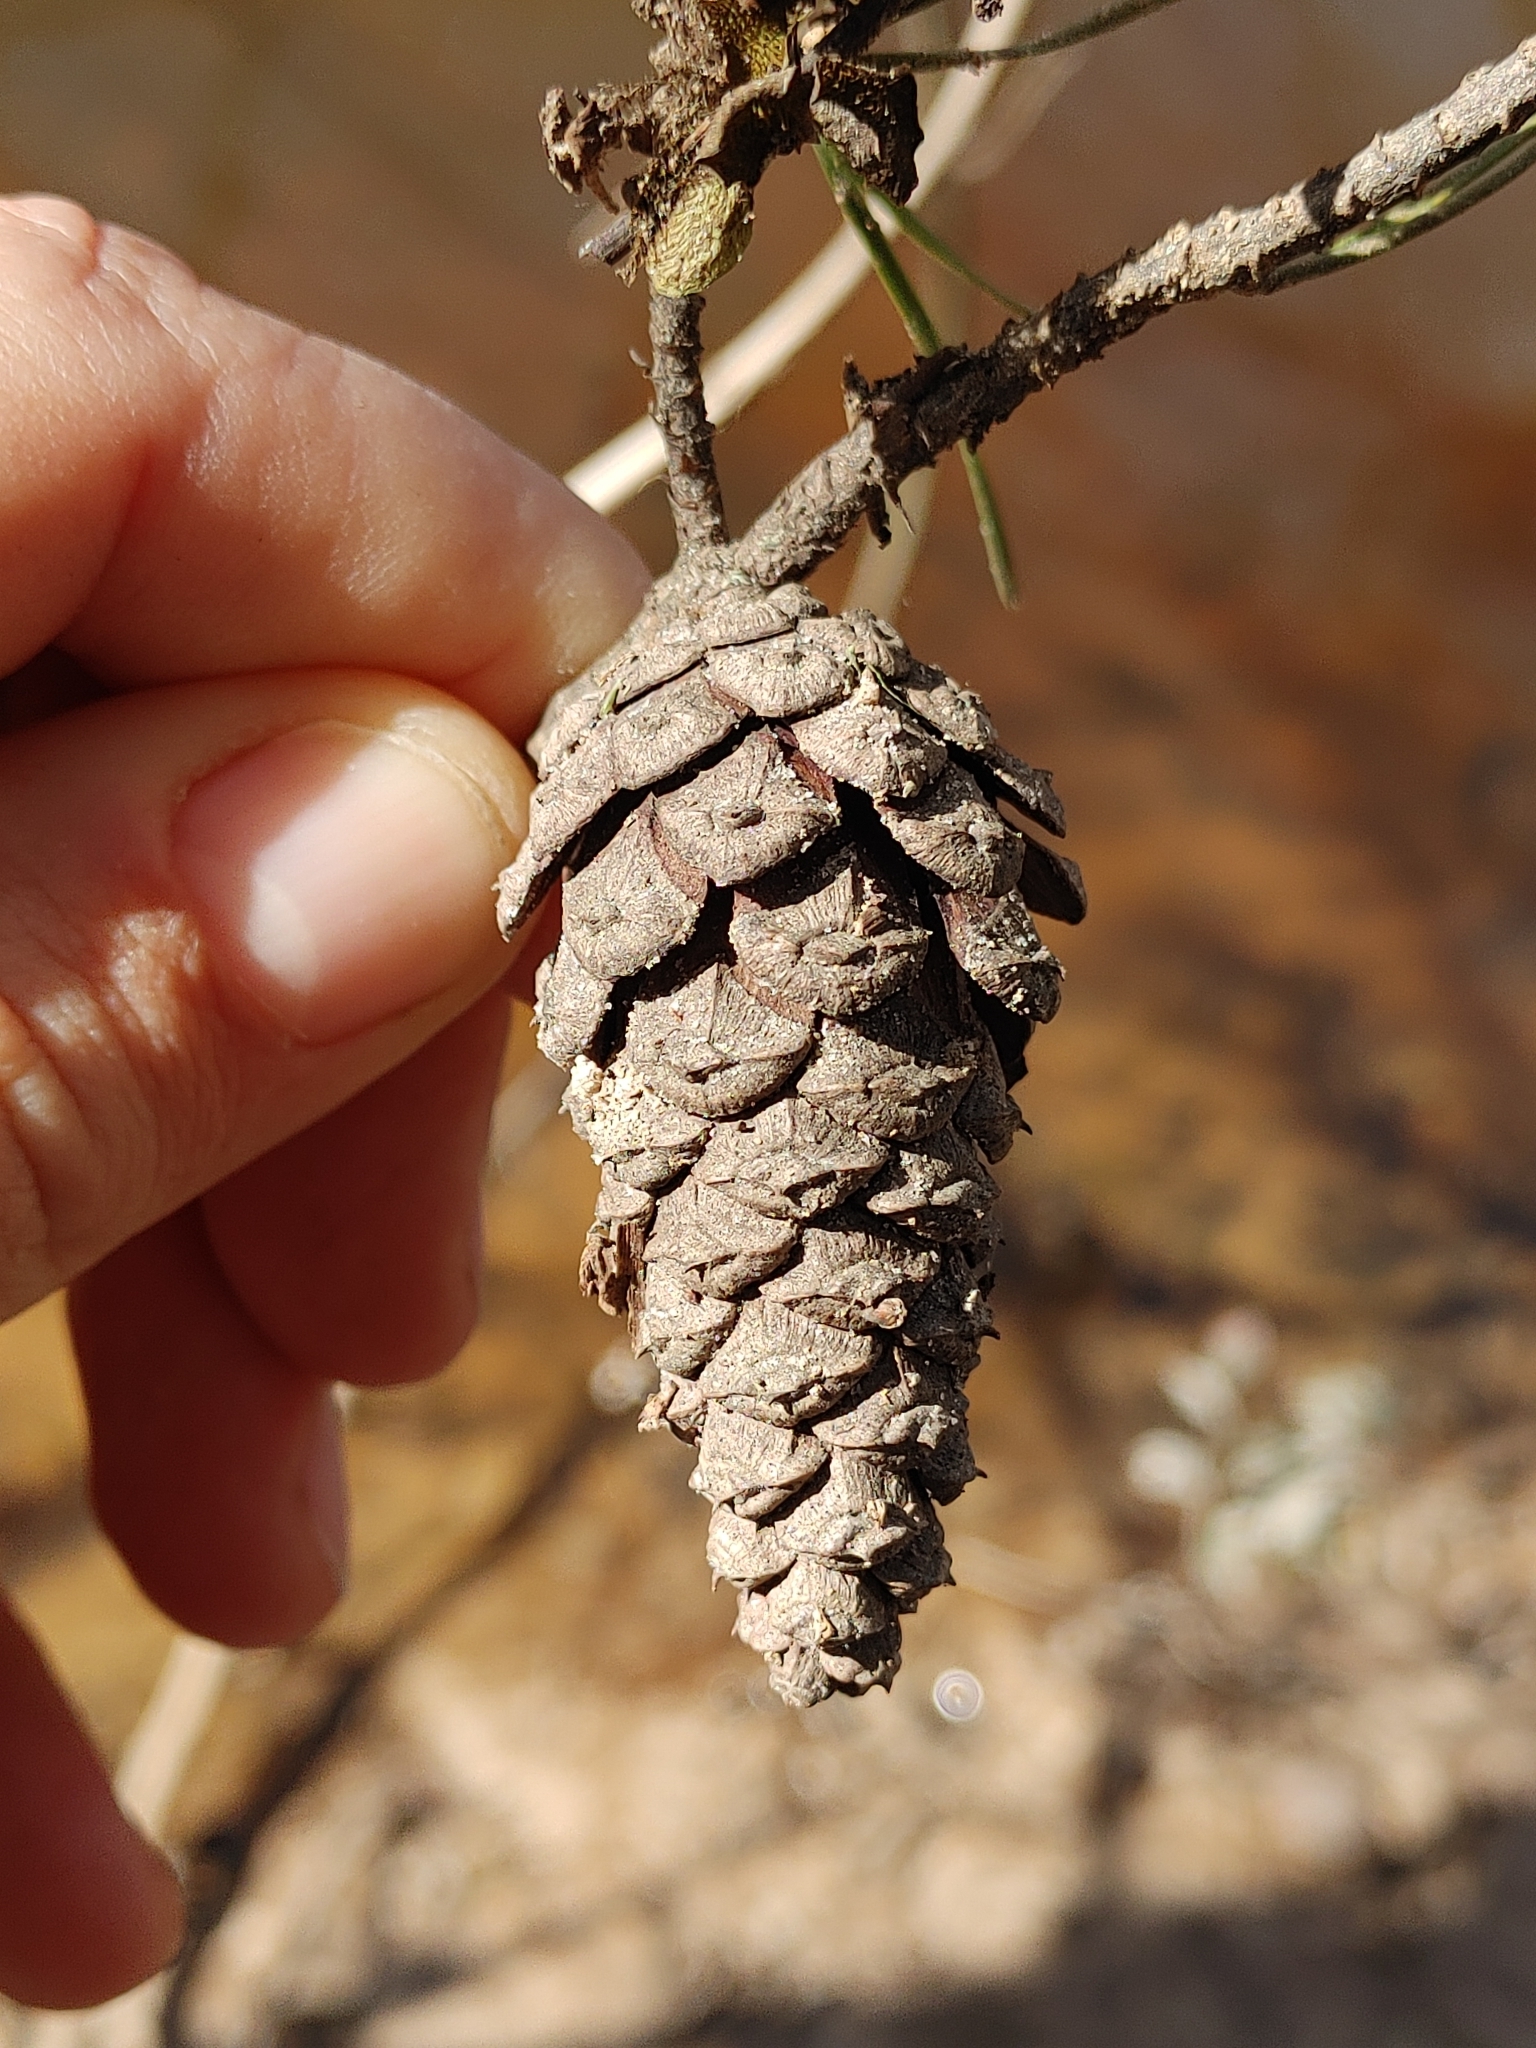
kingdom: Plantae
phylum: Tracheophyta
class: Pinopsida
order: Pinales
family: Pinaceae
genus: Pinus
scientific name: Pinus glabra
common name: Spruce pine
